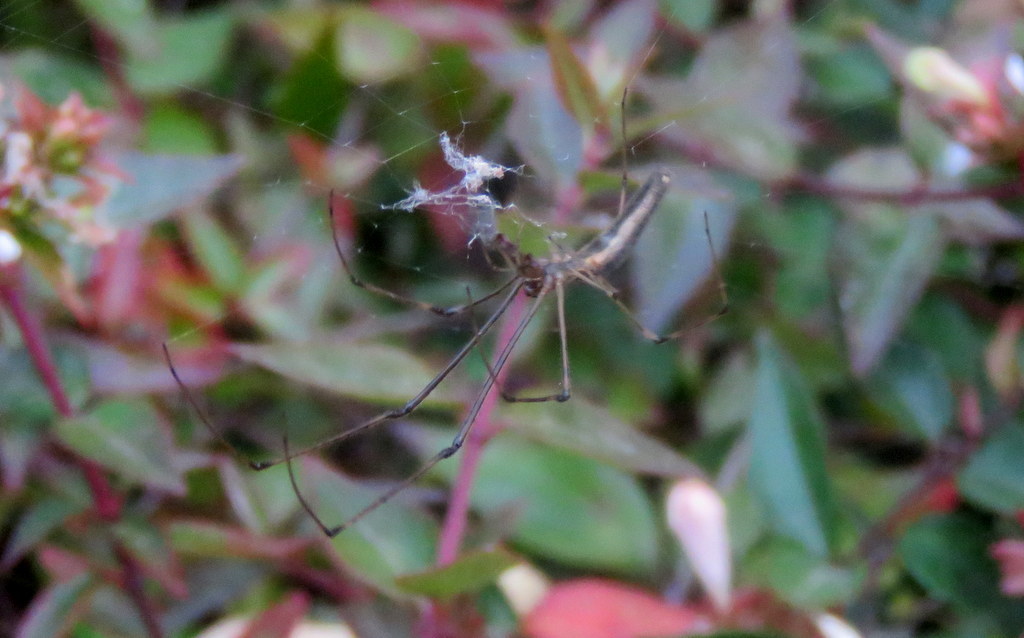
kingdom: Animalia
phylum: Arthropoda
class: Arachnida
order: Araneae
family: Tetragnathidae
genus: Tetragnatha
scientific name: Tetragnatha
